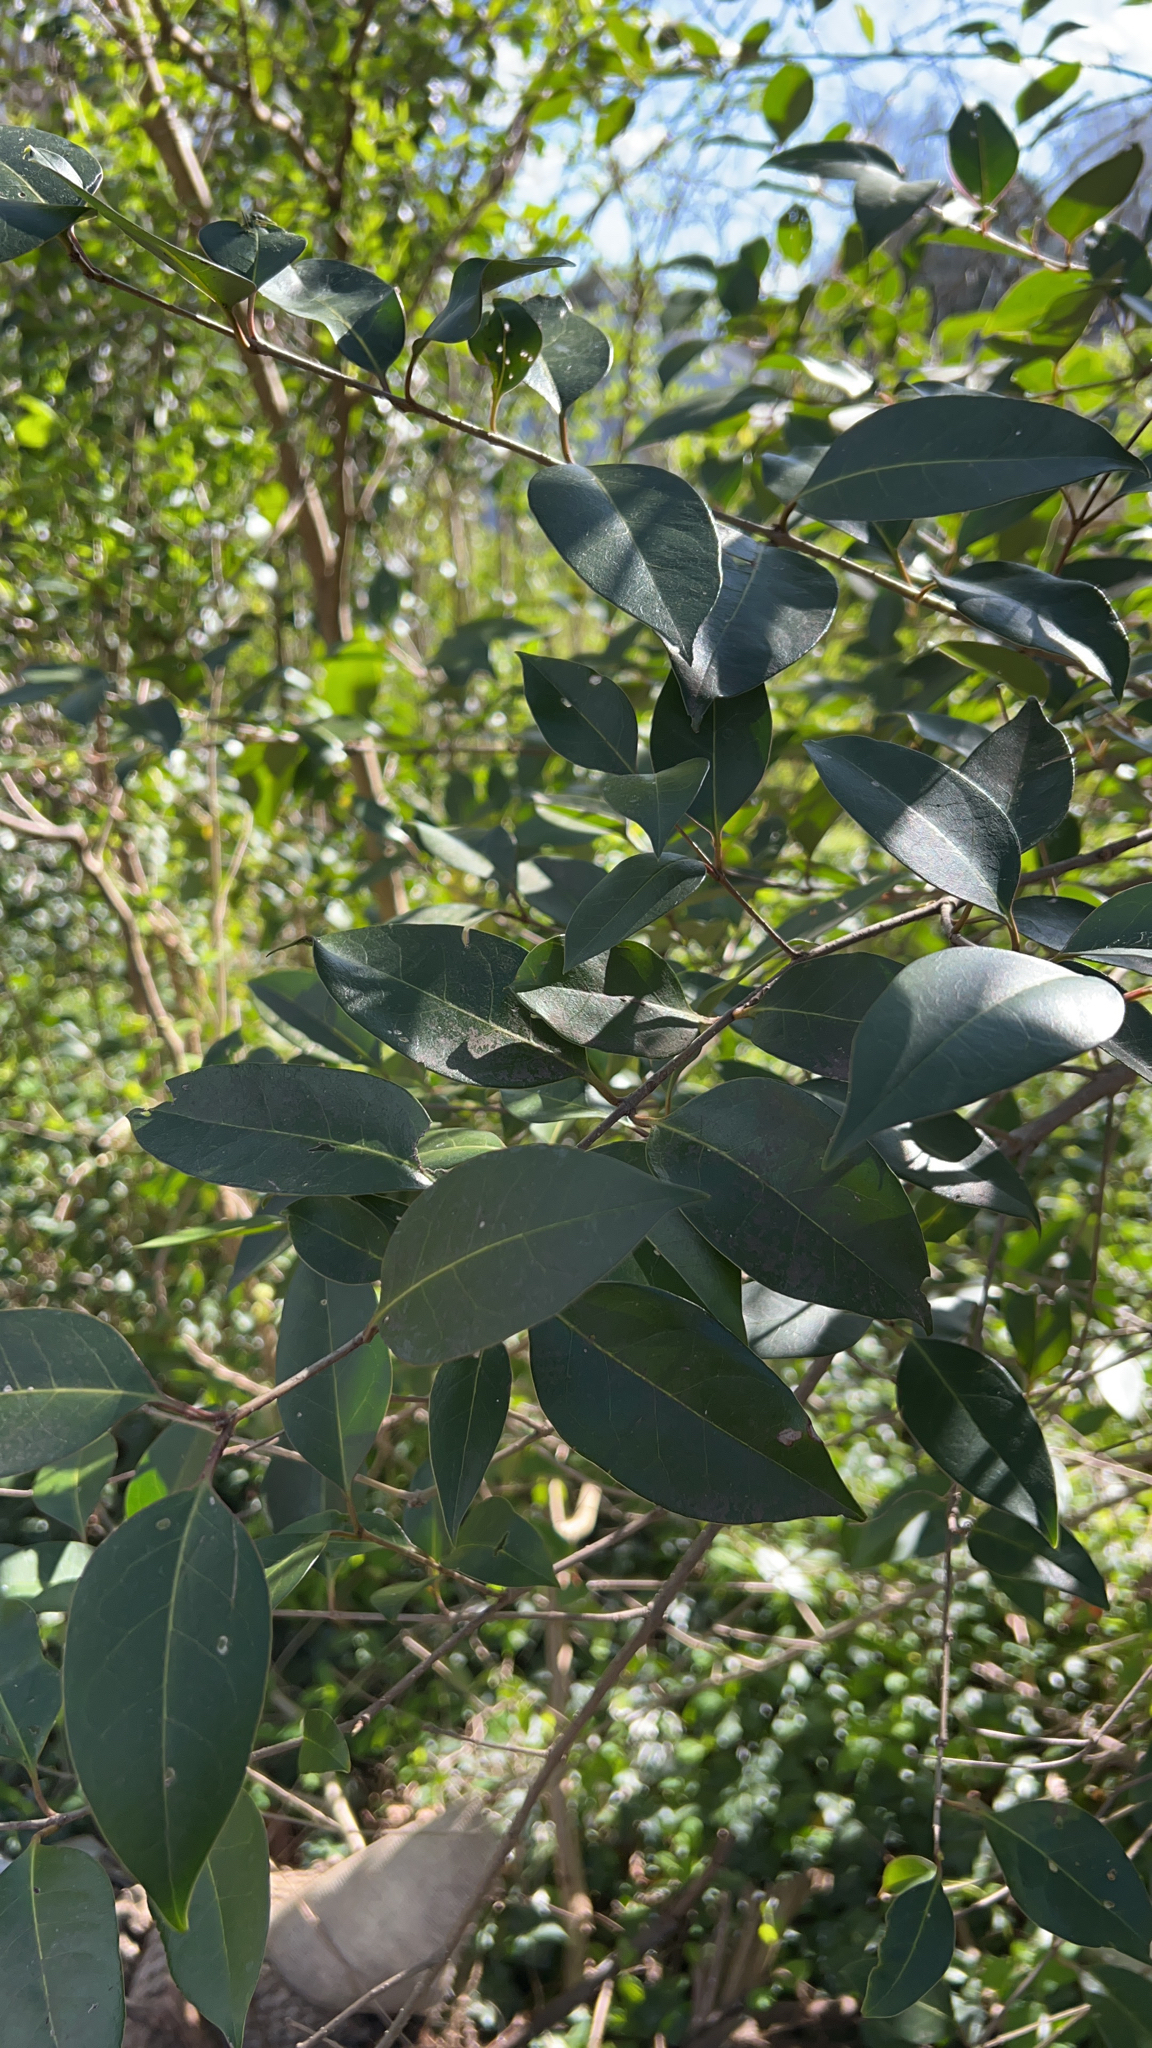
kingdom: Plantae
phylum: Tracheophyta
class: Magnoliopsida
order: Lamiales
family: Oleaceae
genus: Ligustrum
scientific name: Ligustrum lucidum
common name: Glossy privet
